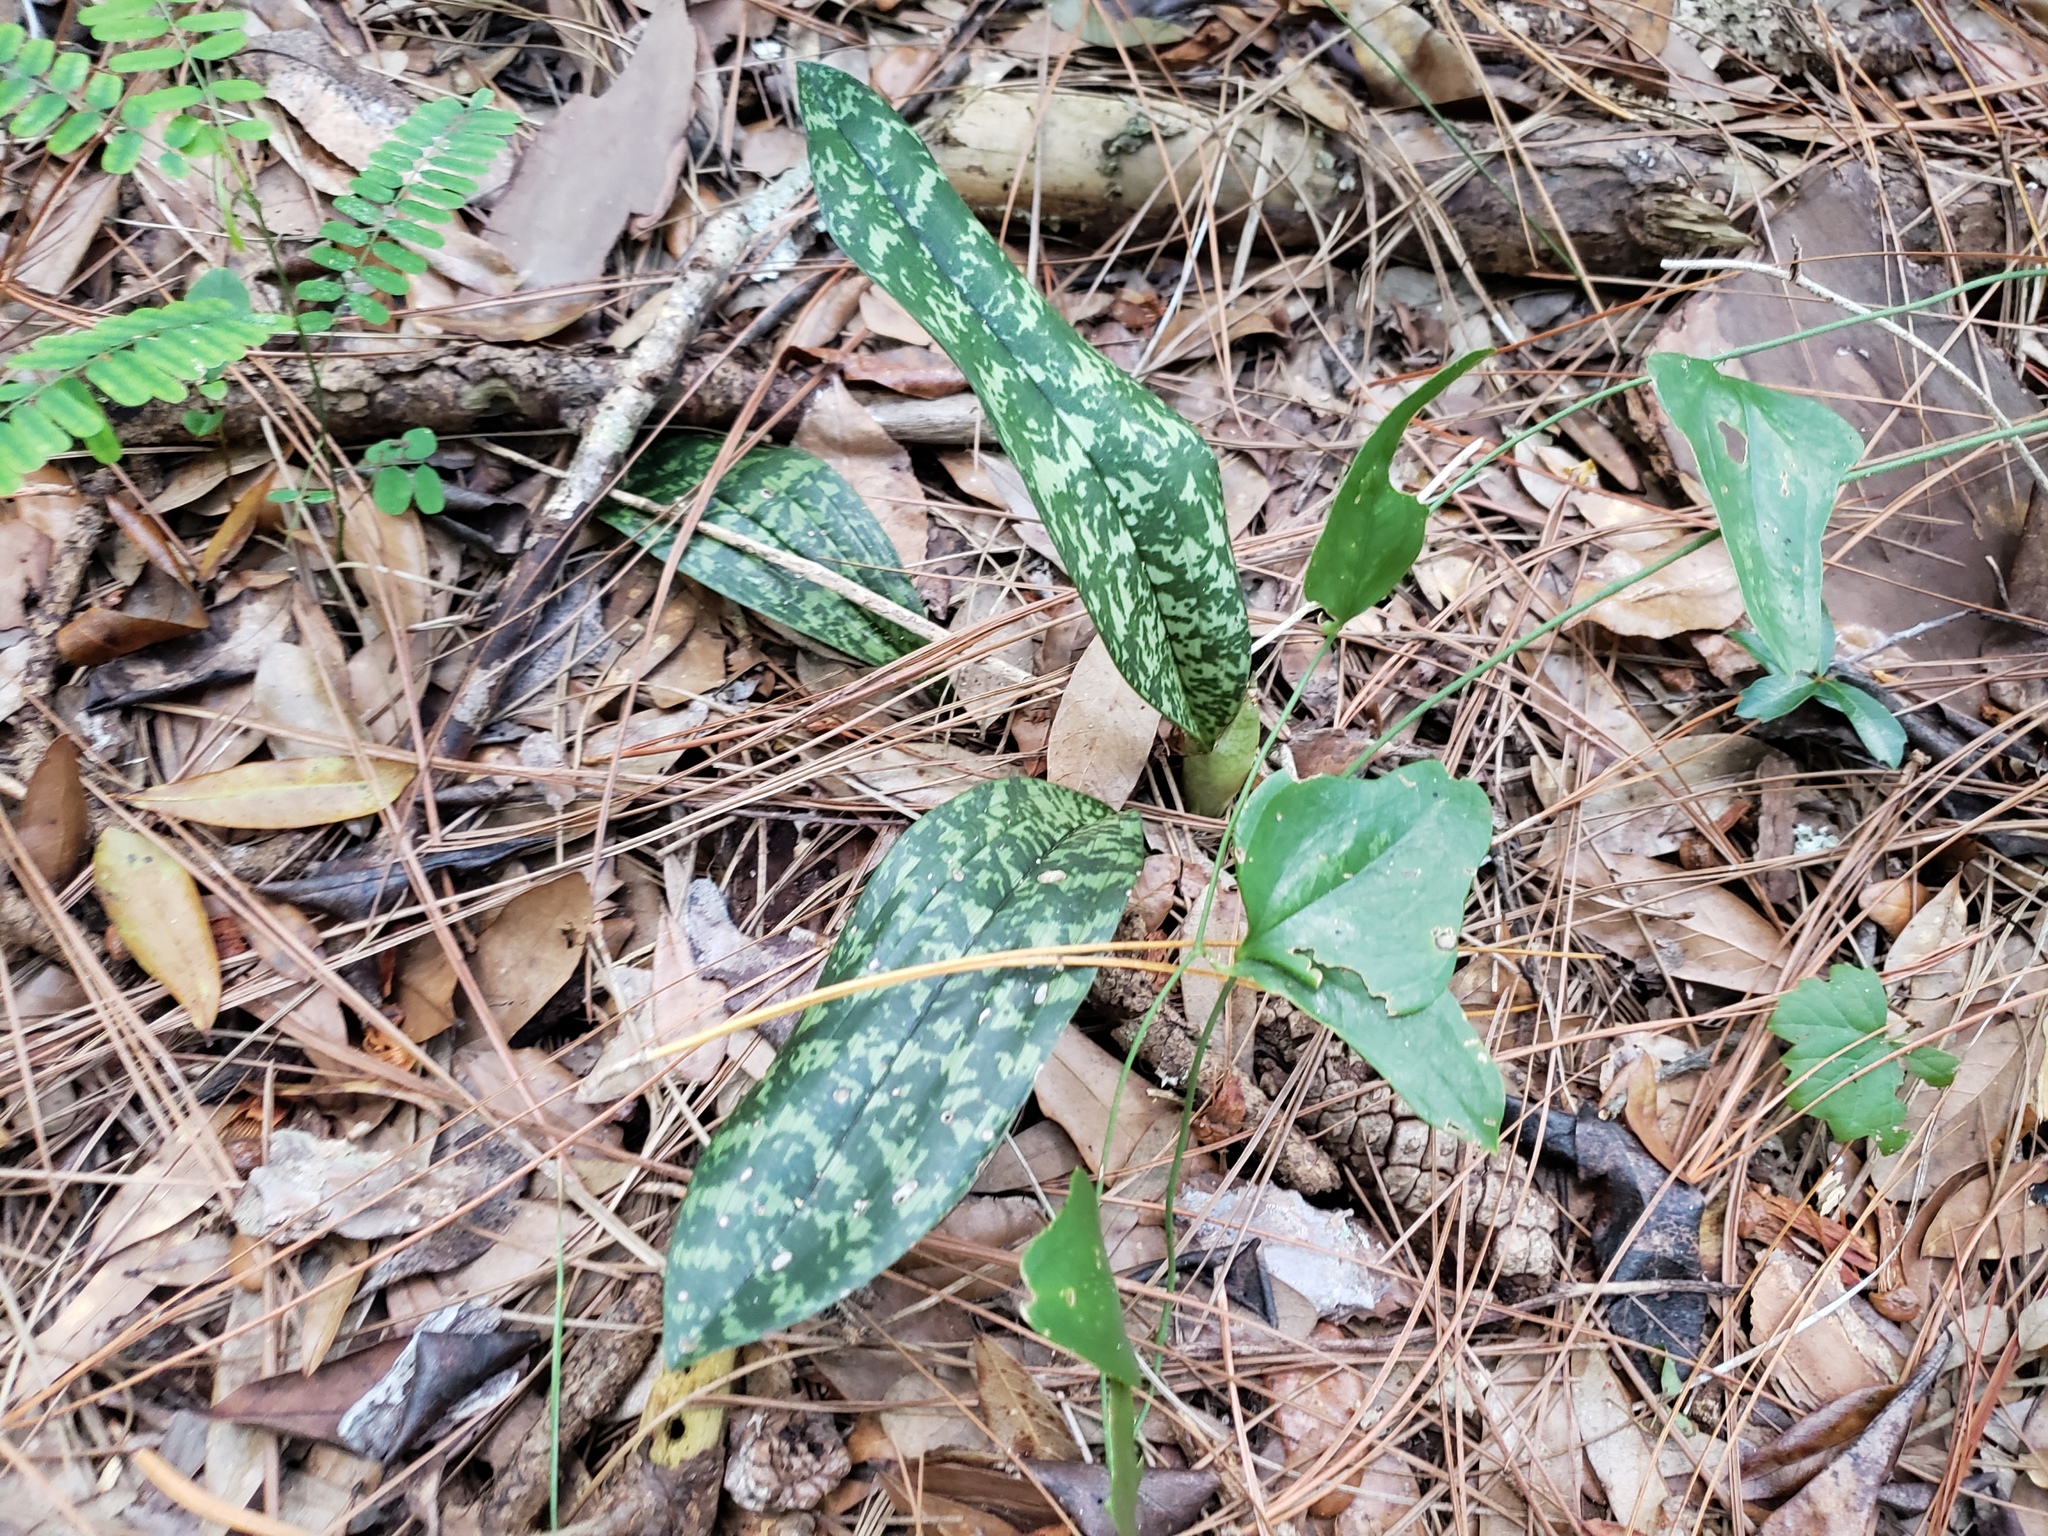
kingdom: Plantae
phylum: Tracheophyta
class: Liliopsida
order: Asparagales
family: Orchidaceae
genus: Eulophia
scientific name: Eulophia maculata
